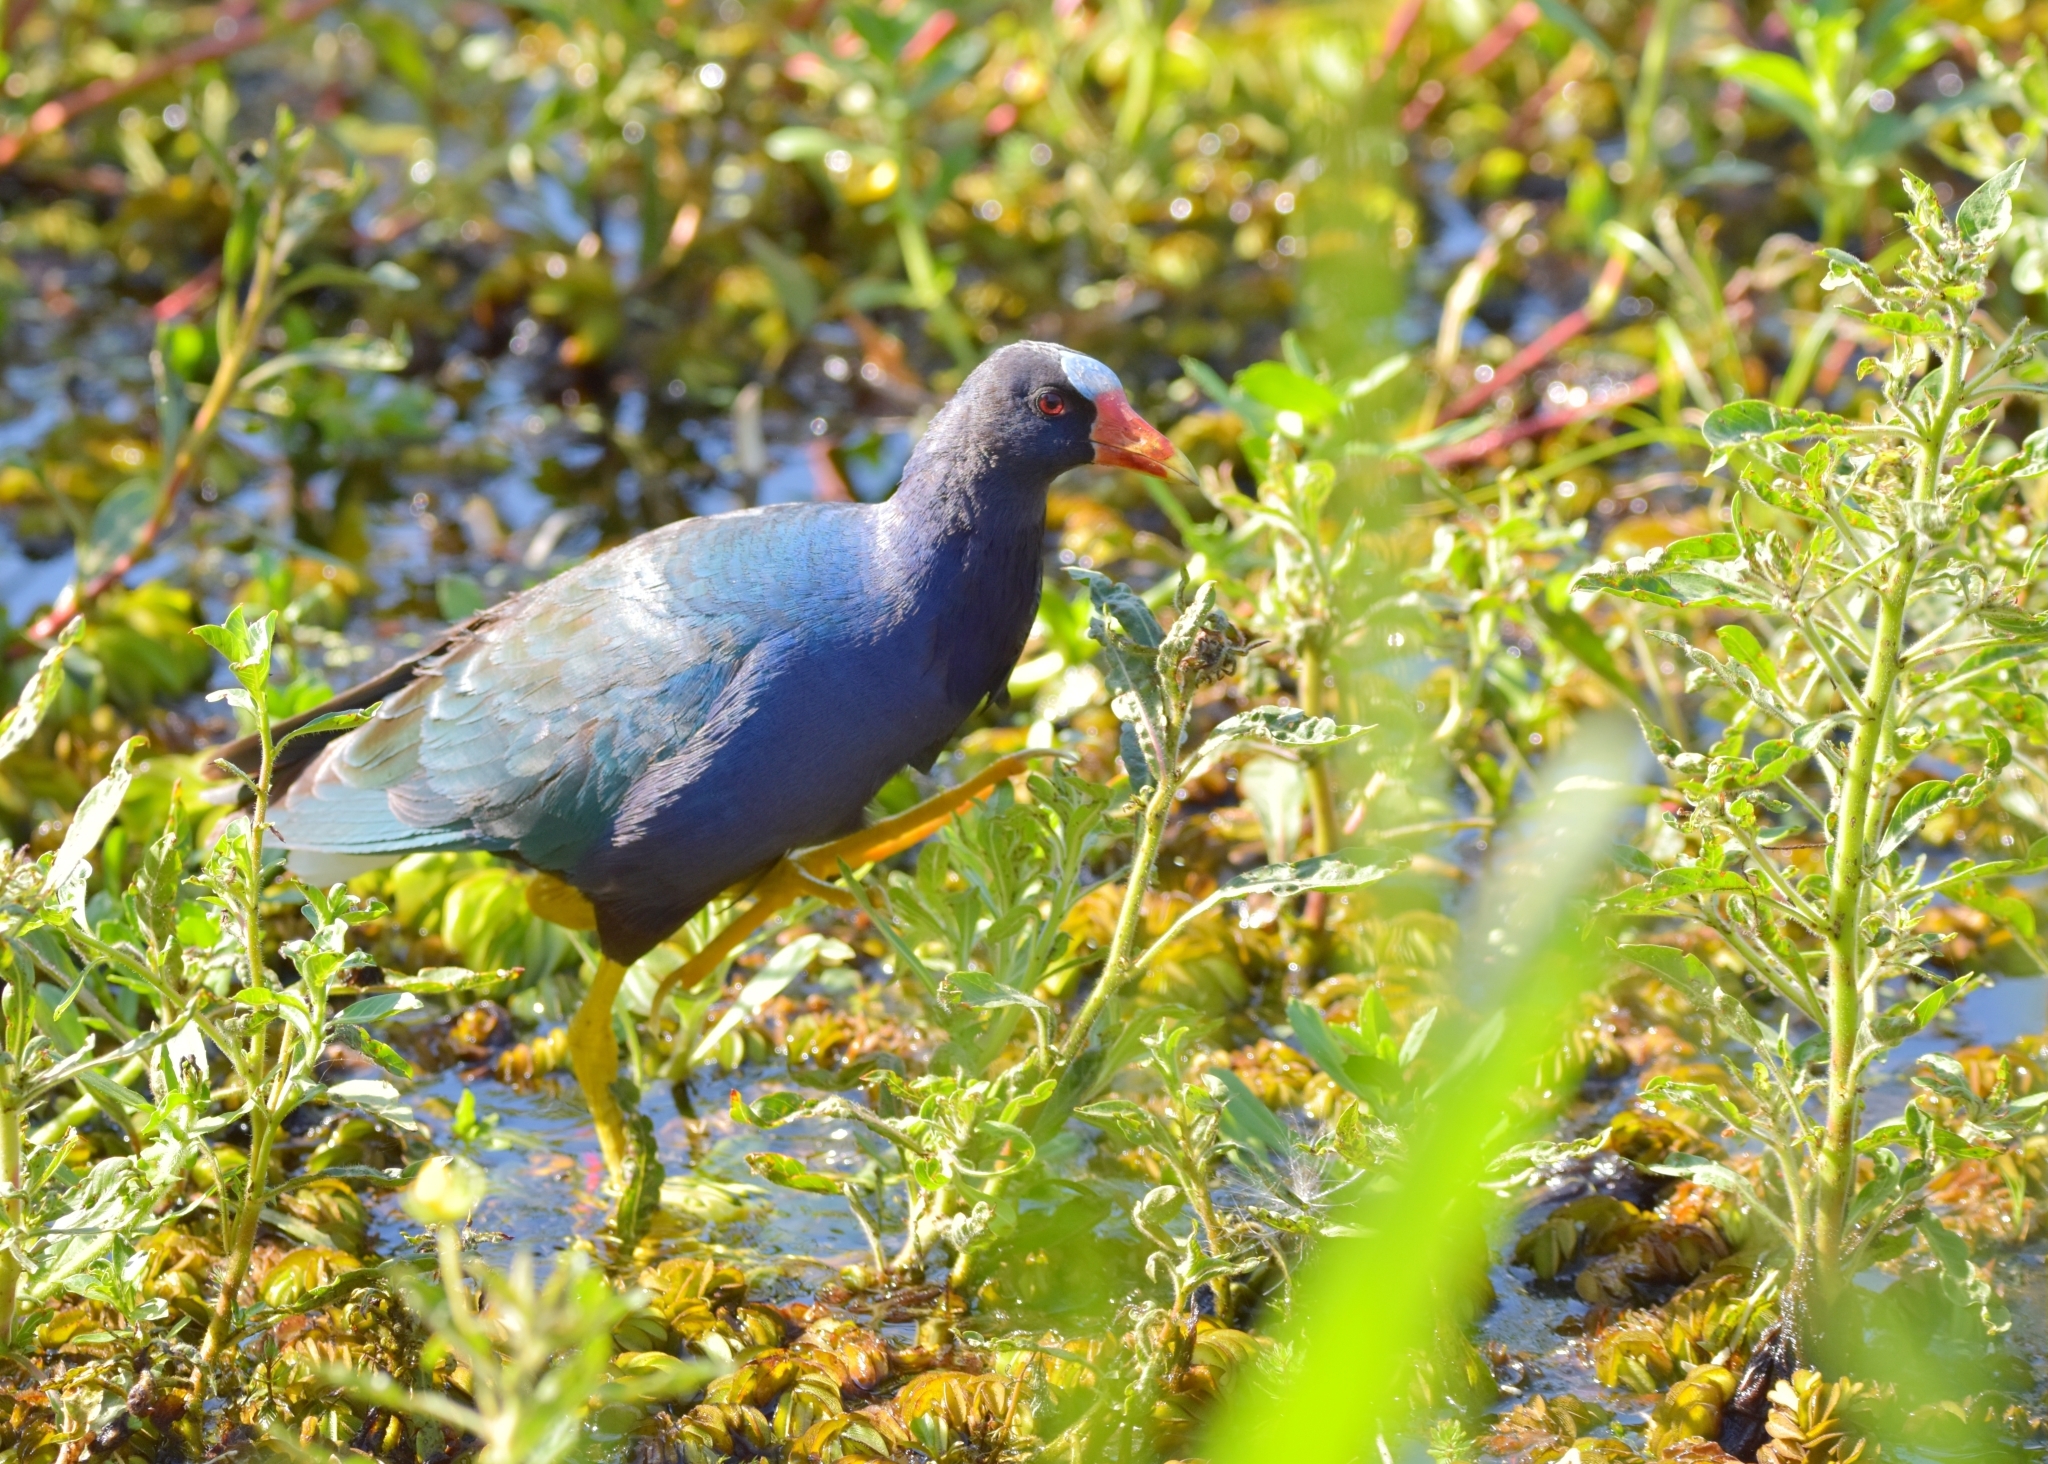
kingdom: Animalia
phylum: Chordata
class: Aves
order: Gruiformes
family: Rallidae
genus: Porphyrio
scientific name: Porphyrio martinica
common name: Purple gallinule
